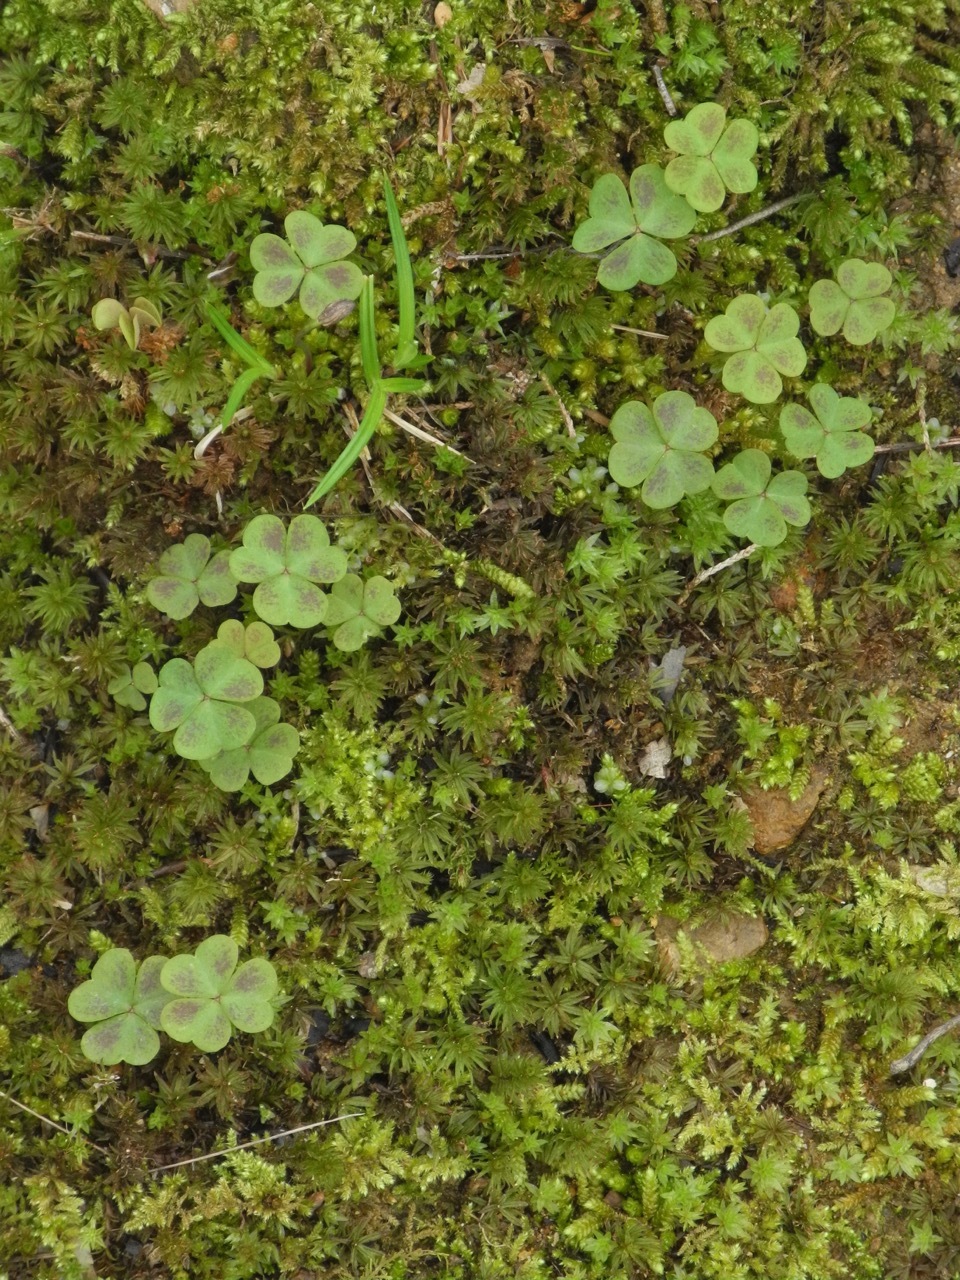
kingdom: Plantae
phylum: Tracheophyta
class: Magnoliopsida
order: Oxalidales
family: Oxalidaceae
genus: Oxalis
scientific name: Oxalis violacea
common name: Violet wood-sorrel
